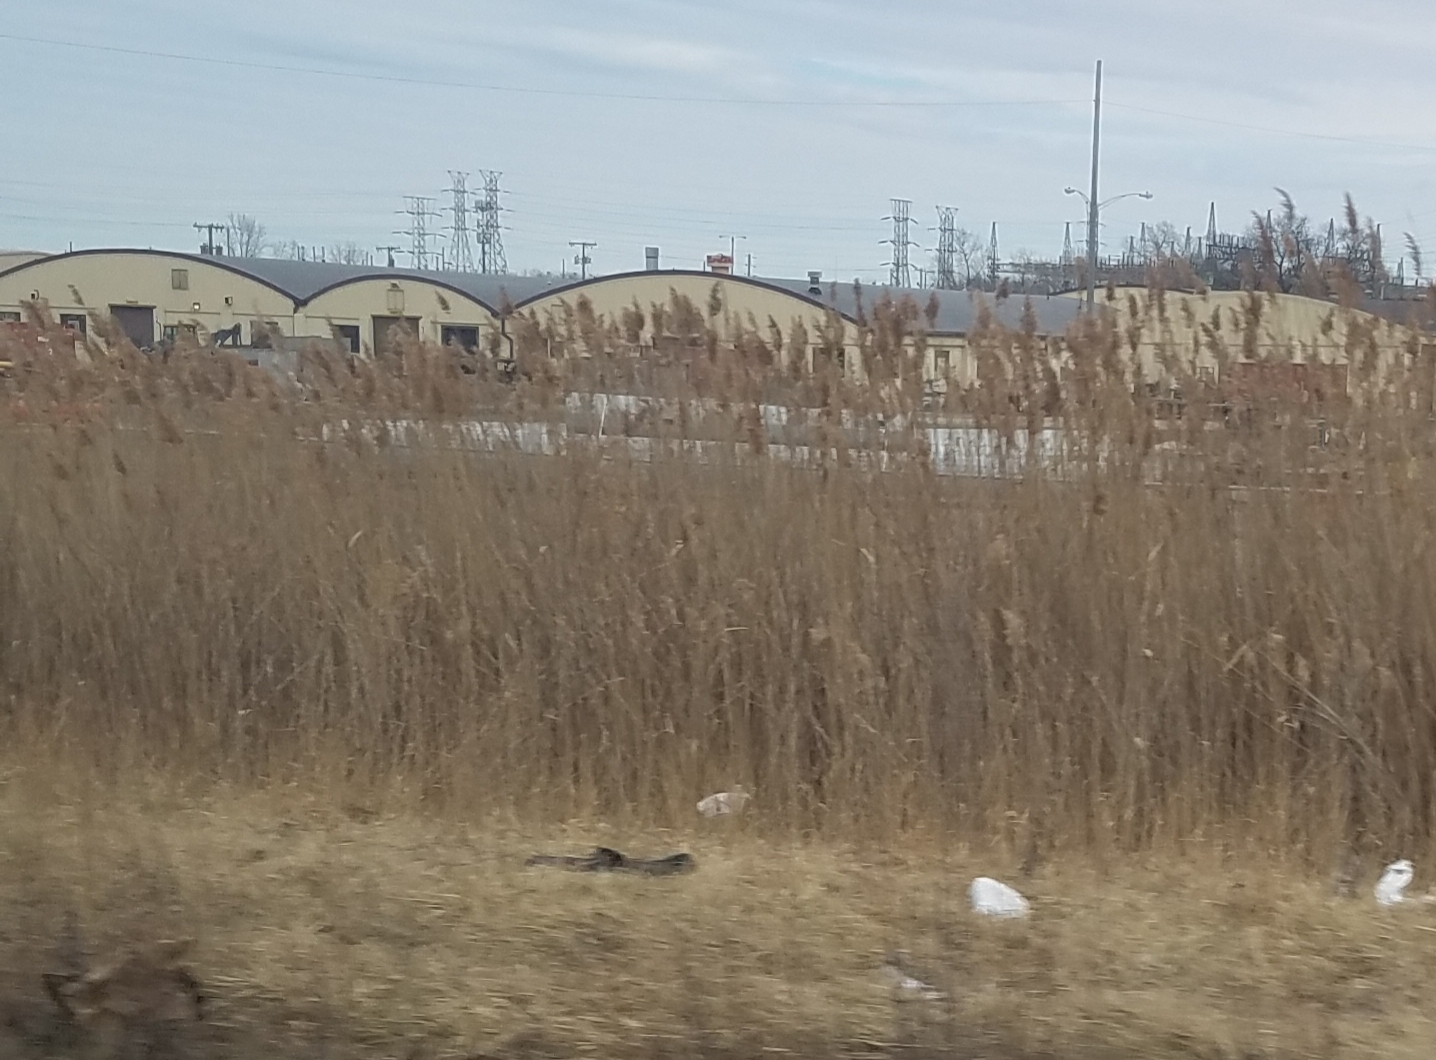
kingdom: Plantae
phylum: Tracheophyta
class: Liliopsida
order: Poales
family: Poaceae
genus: Phragmites
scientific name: Phragmites australis
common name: Common reed
